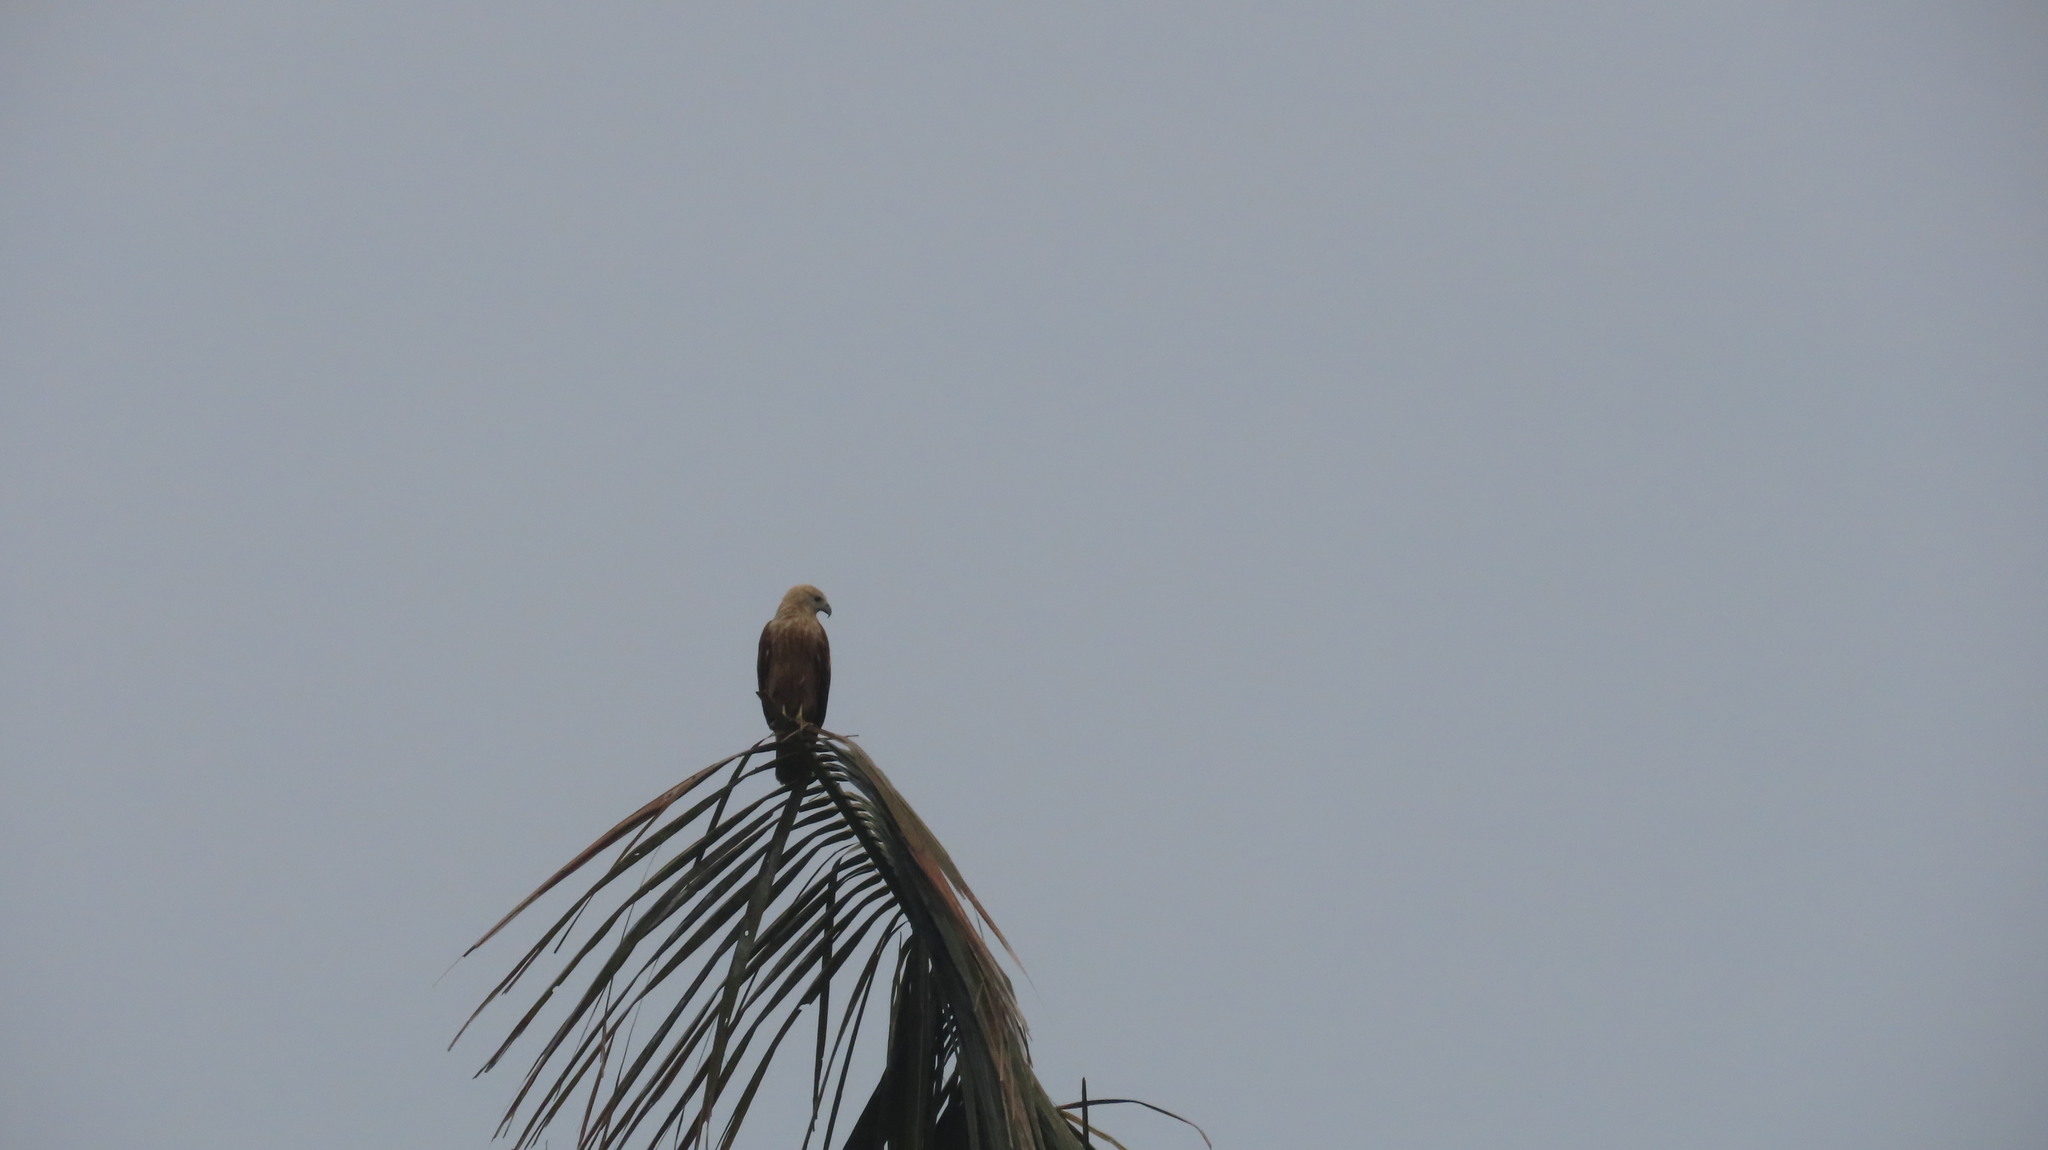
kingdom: Animalia
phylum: Chordata
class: Aves
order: Accipitriformes
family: Accipitridae
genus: Haliastur
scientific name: Haliastur indus
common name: Brahminy kite
